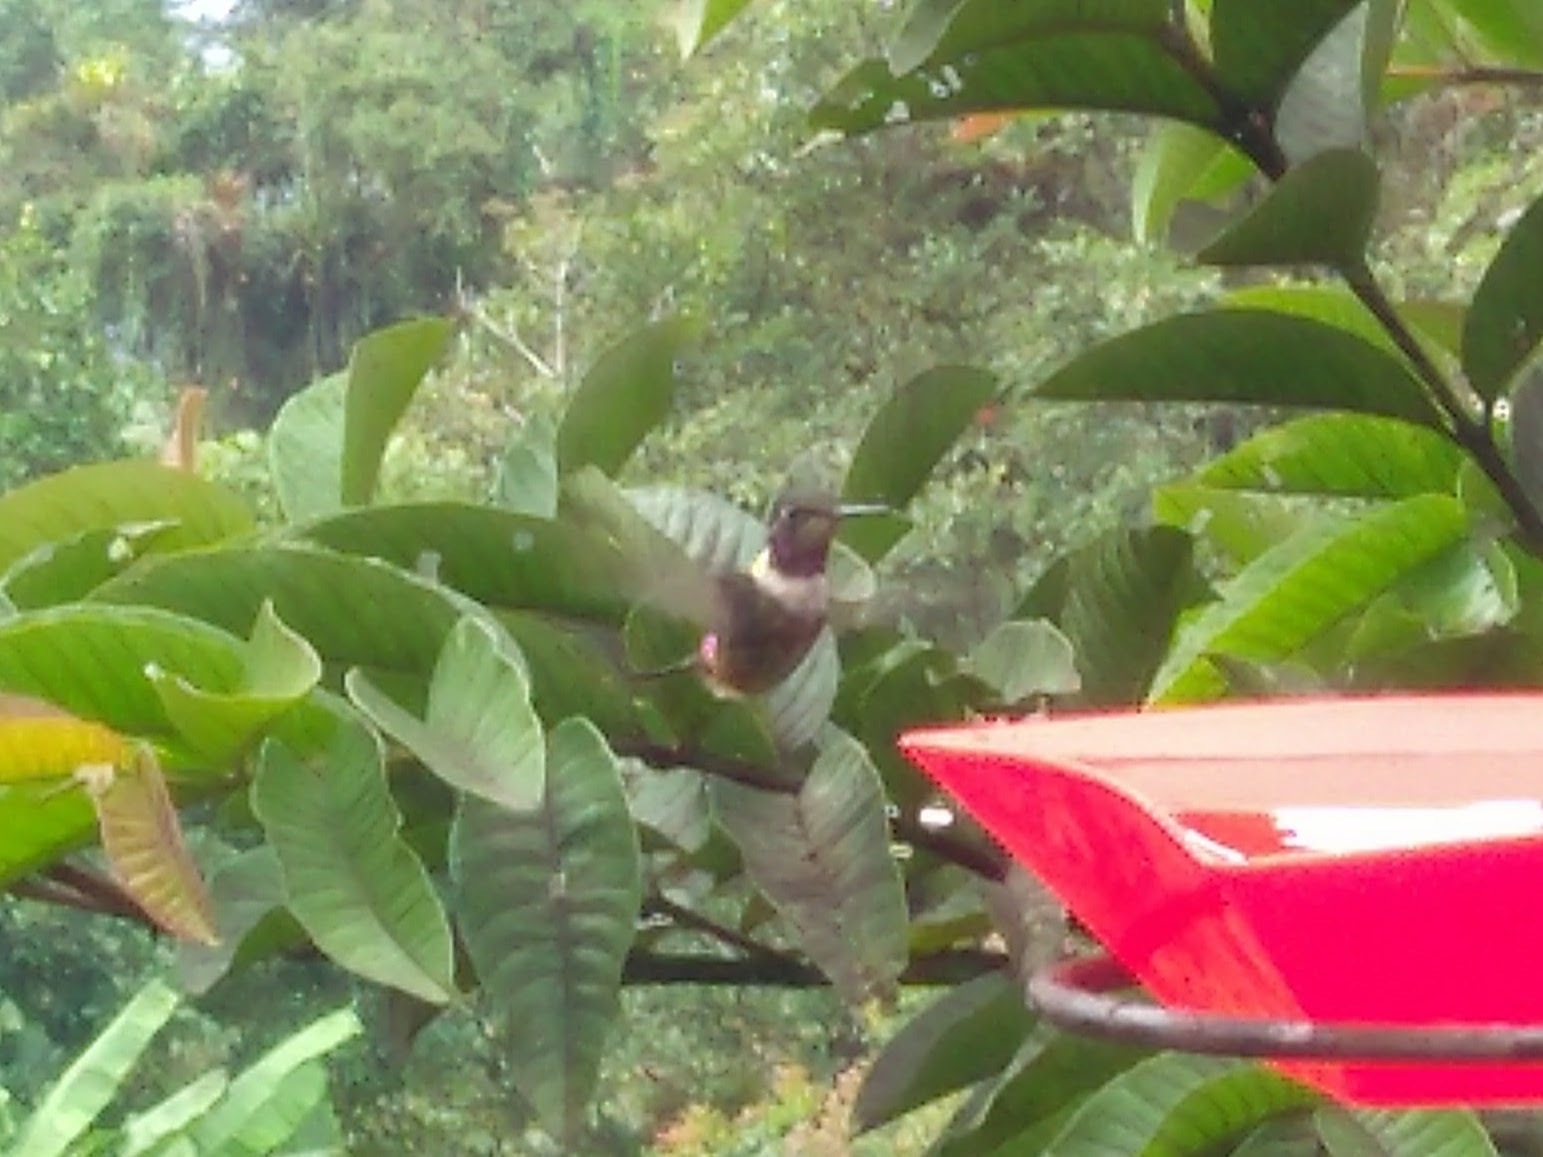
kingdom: Animalia
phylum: Chordata
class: Aves
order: Apodiformes
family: Trochilidae
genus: Calliphlox
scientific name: Calliphlox mitchellii
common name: Purple-throated woodstar
